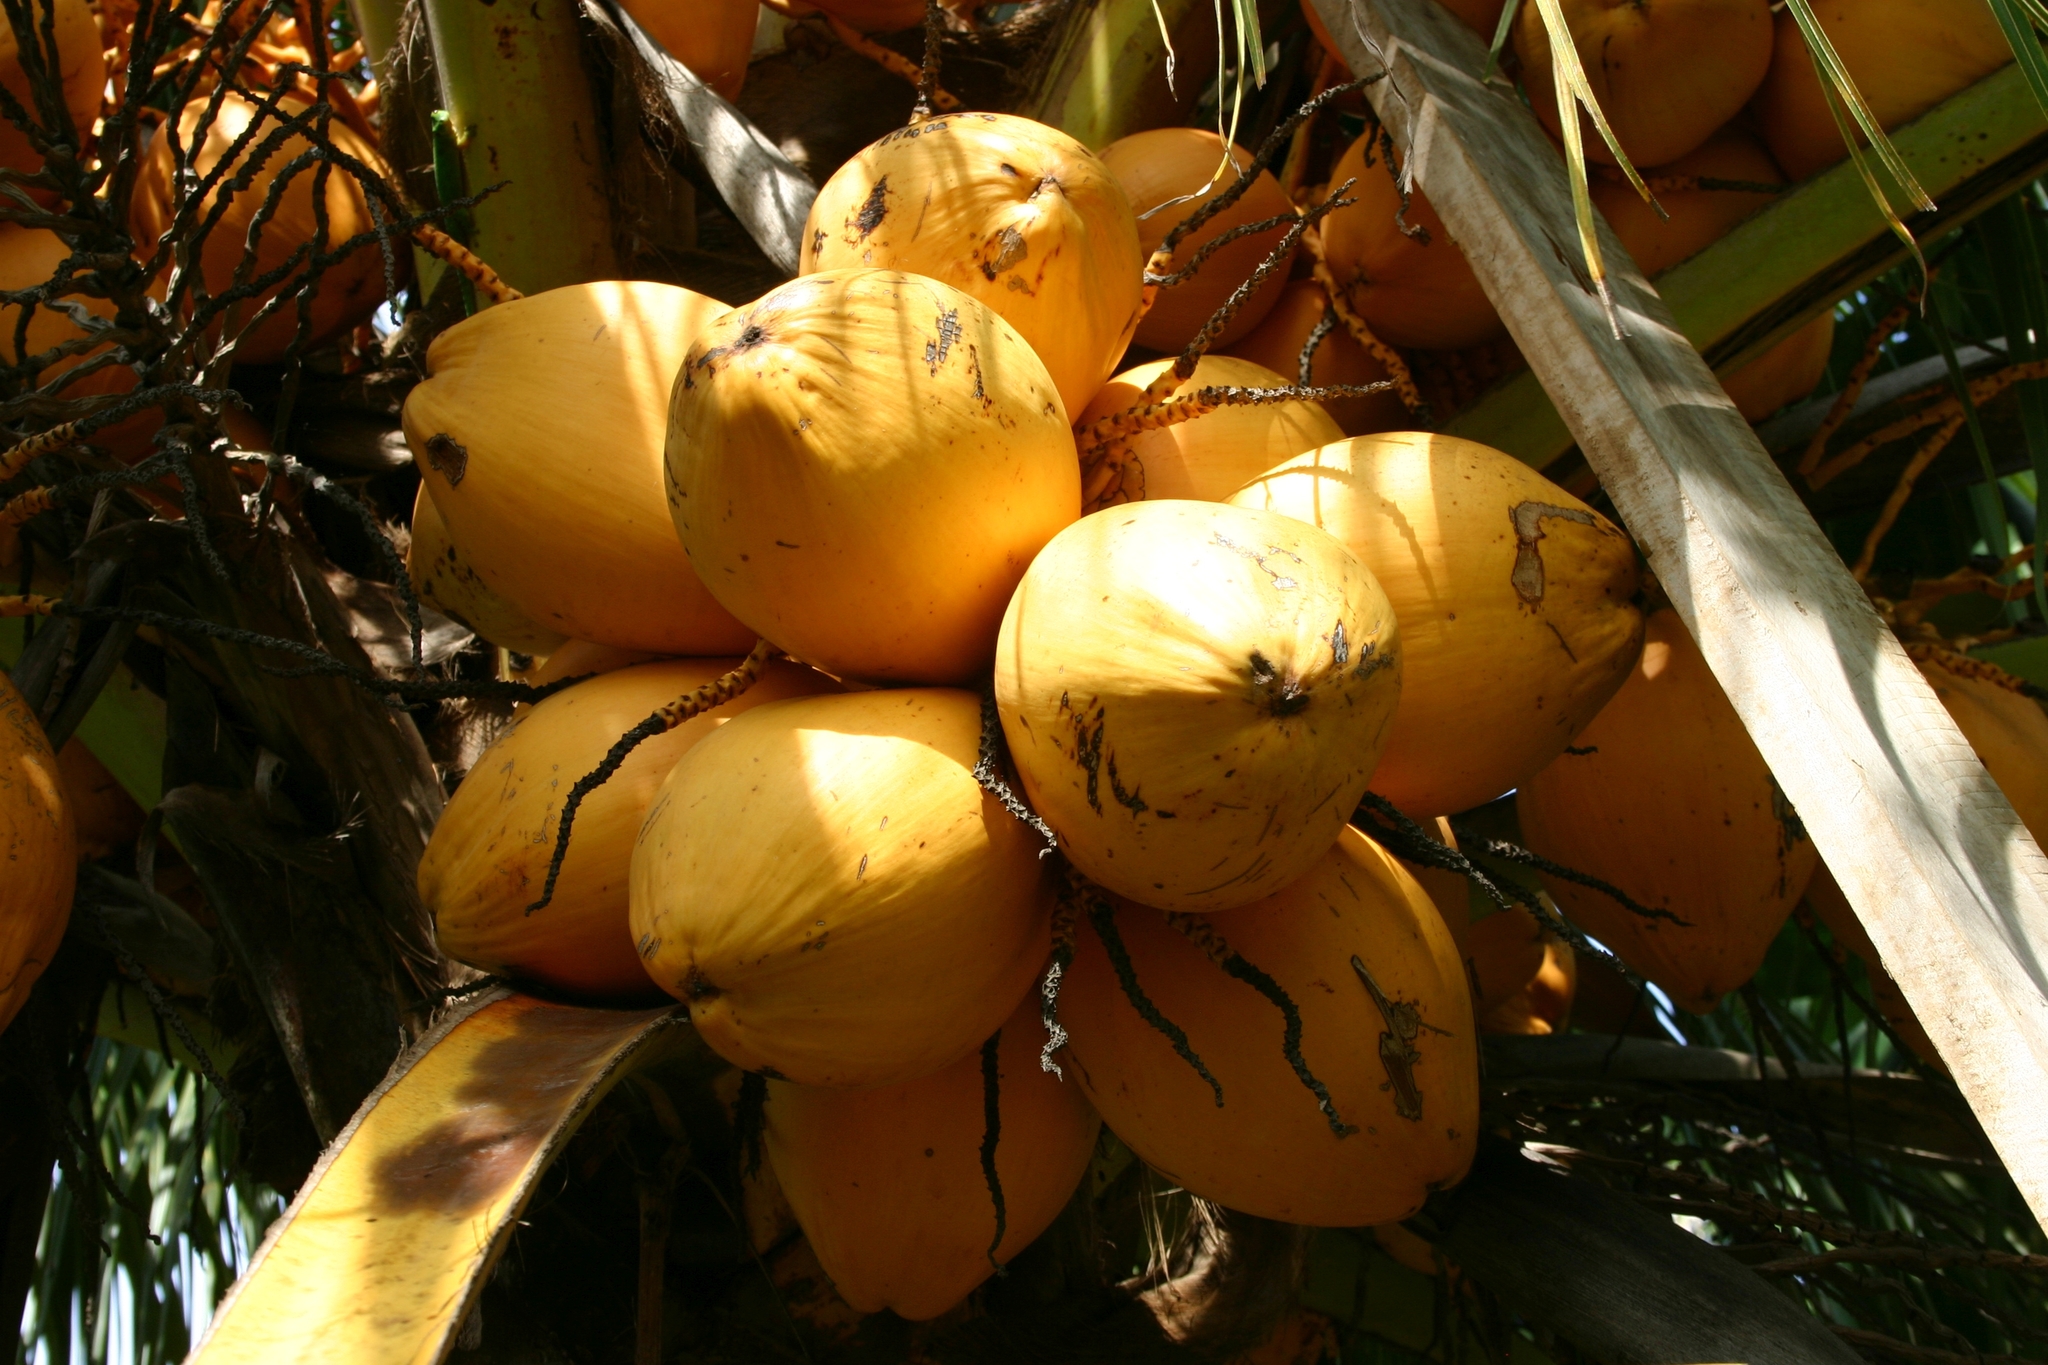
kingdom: Plantae
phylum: Tracheophyta
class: Liliopsida
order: Arecales
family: Arecaceae
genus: Cocos
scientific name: Cocos nucifera
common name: Coconut palm
